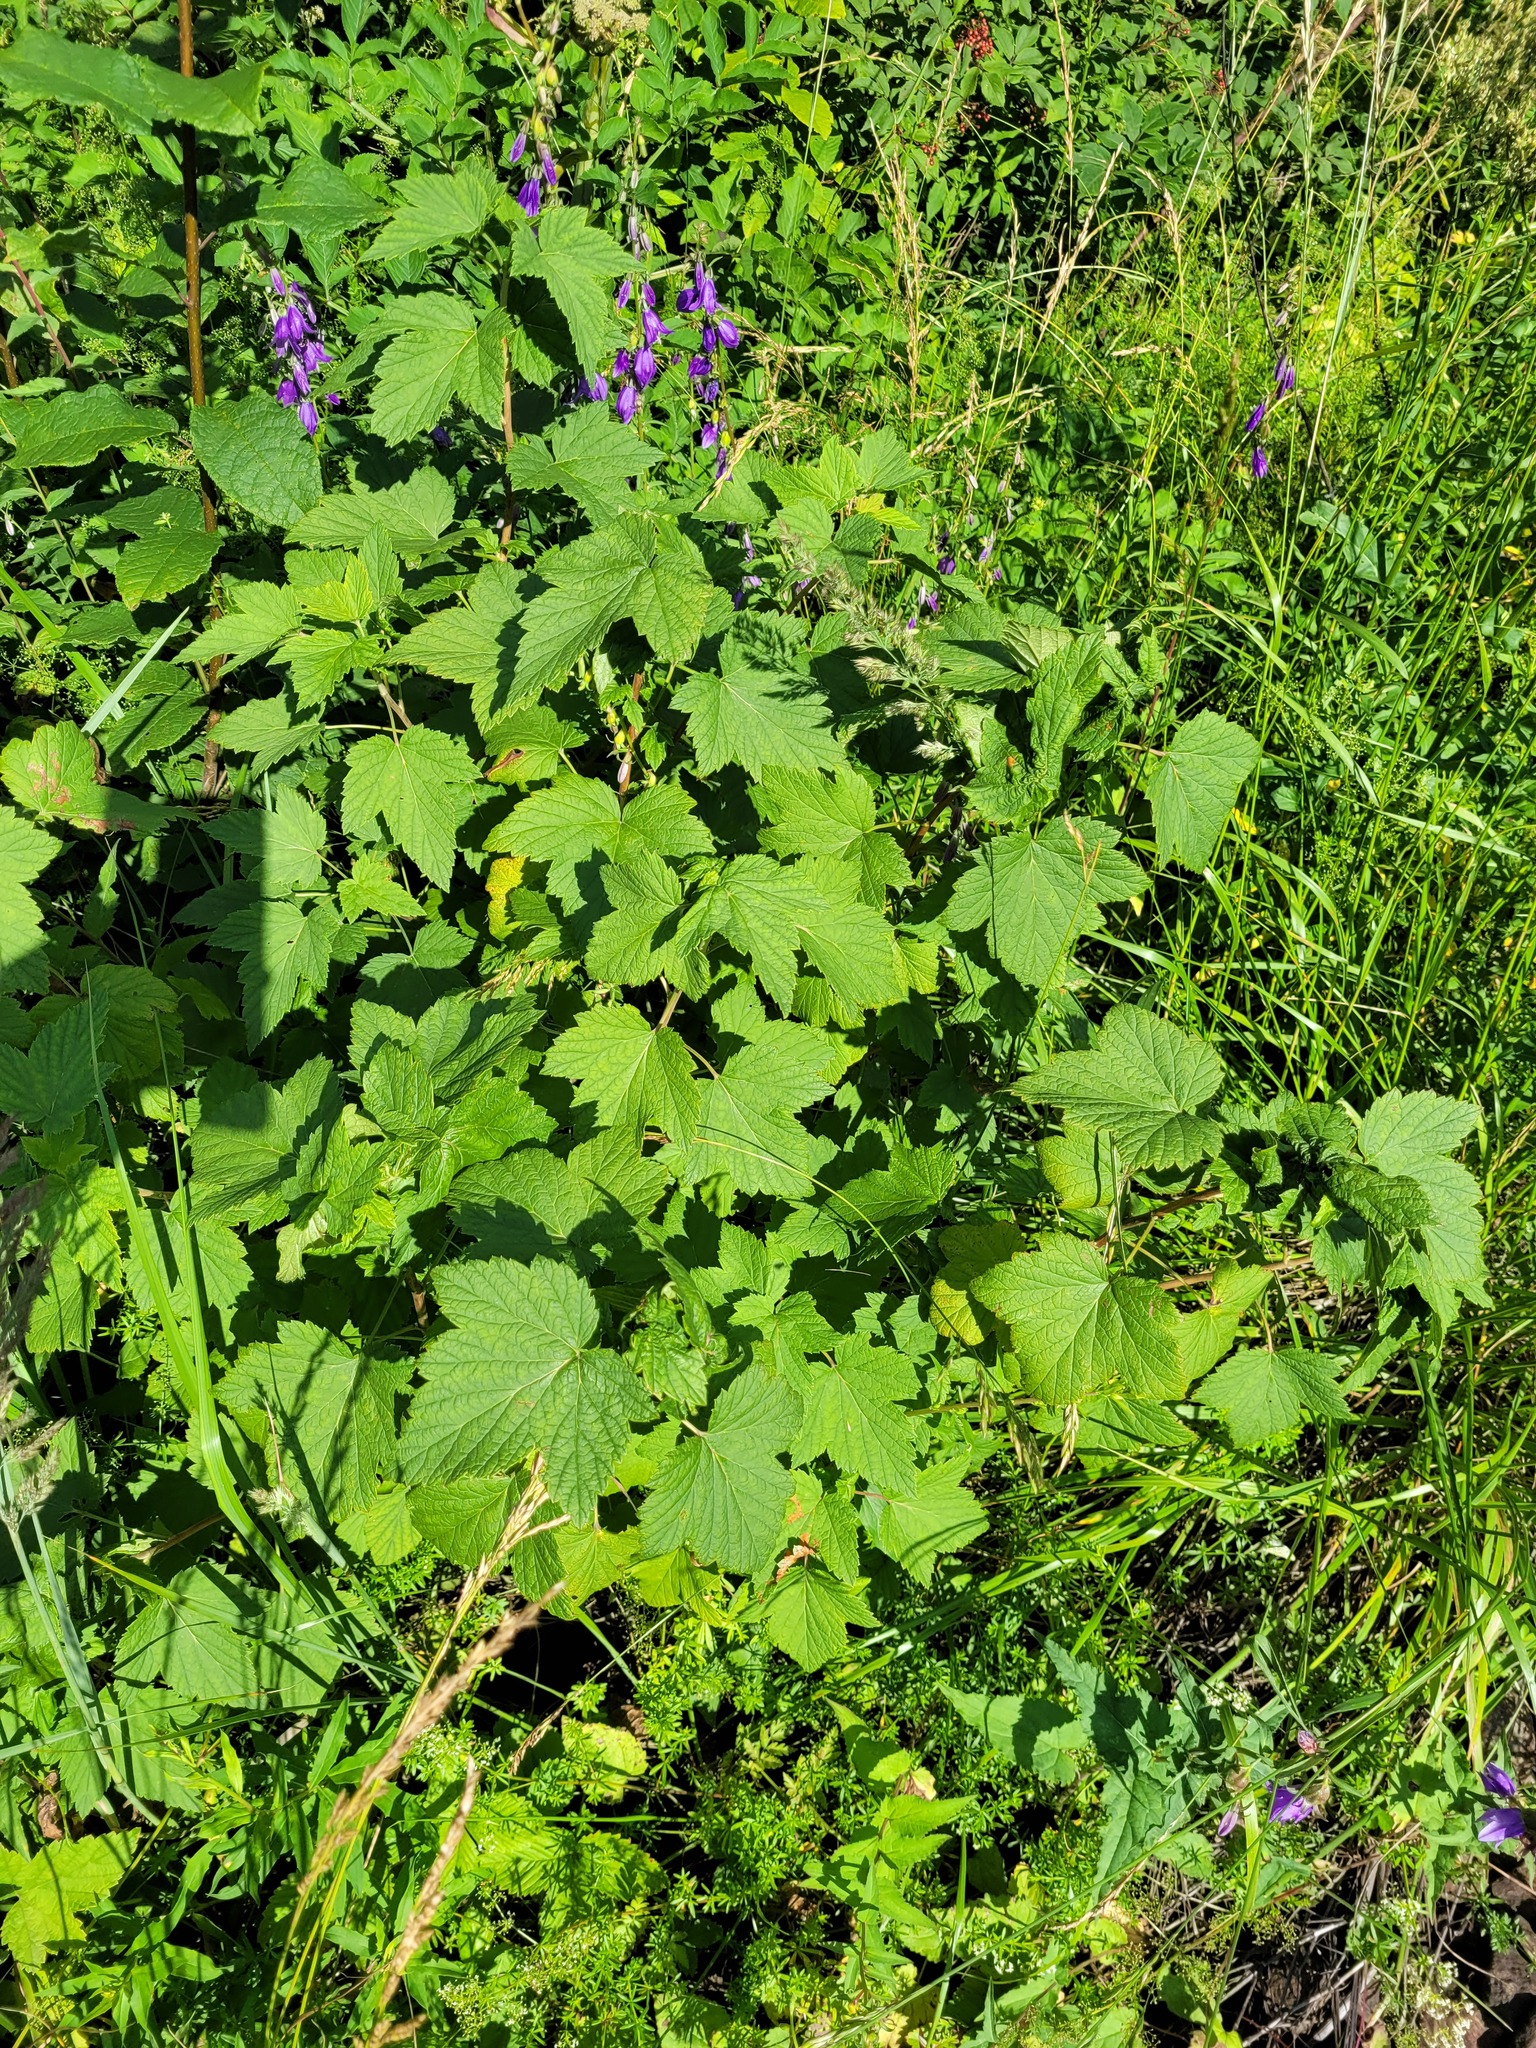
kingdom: Plantae
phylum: Tracheophyta
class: Magnoliopsida
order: Saxifragales
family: Grossulariaceae
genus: Ribes
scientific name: Ribes nigrum
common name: Black currant
